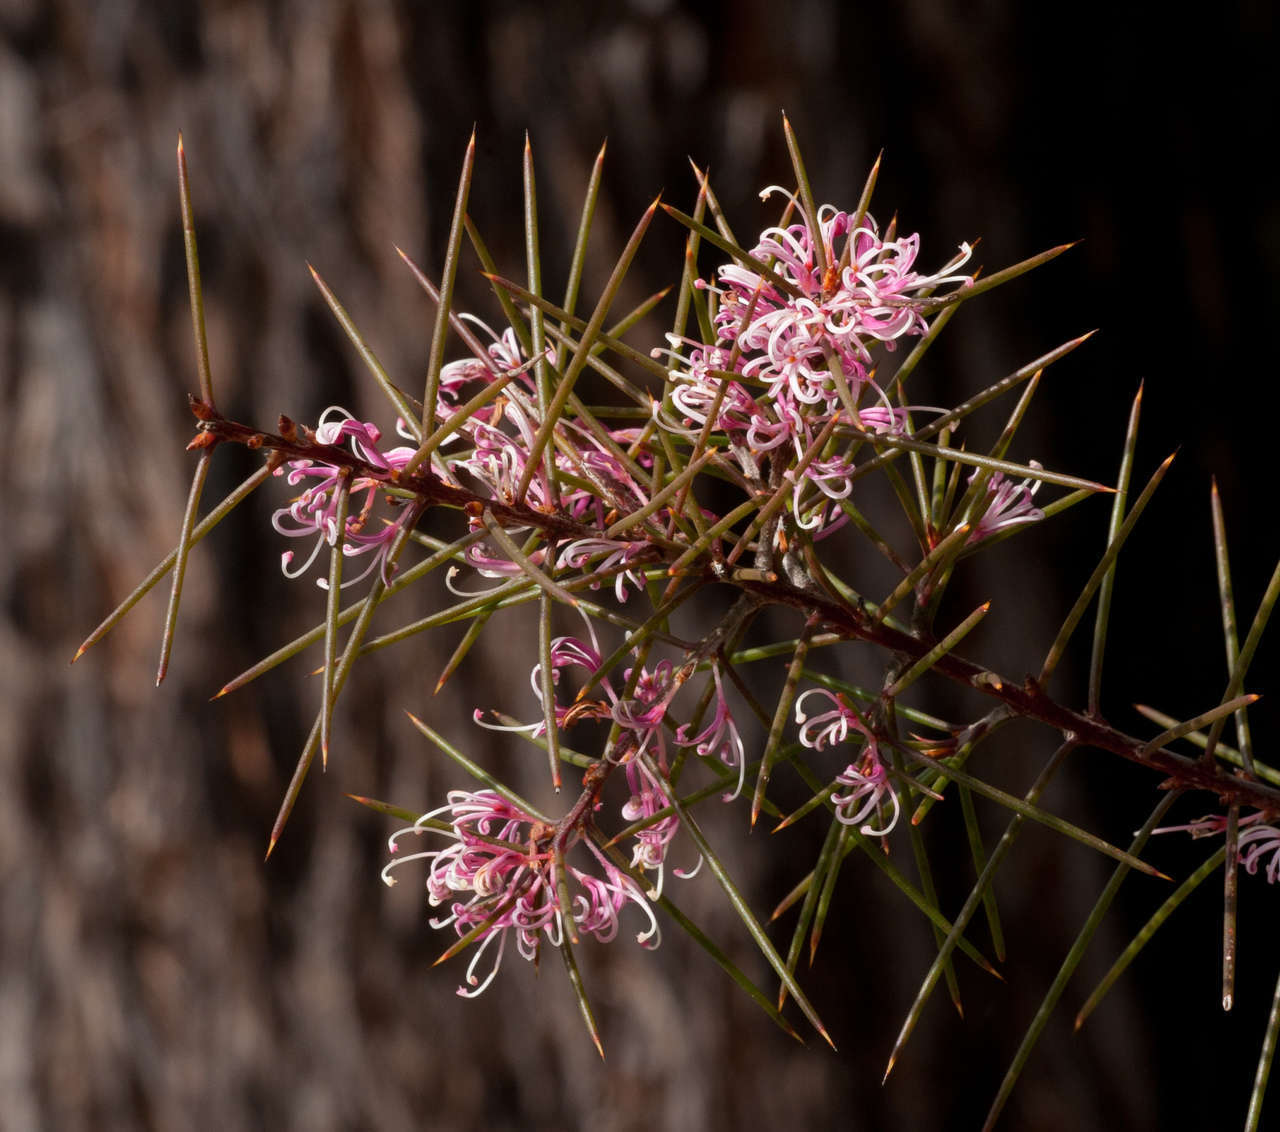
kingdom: Plantae
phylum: Tracheophyta
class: Magnoliopsida
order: Proteales
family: Proteaceae
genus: Hakea
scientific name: Hakea decurrens
